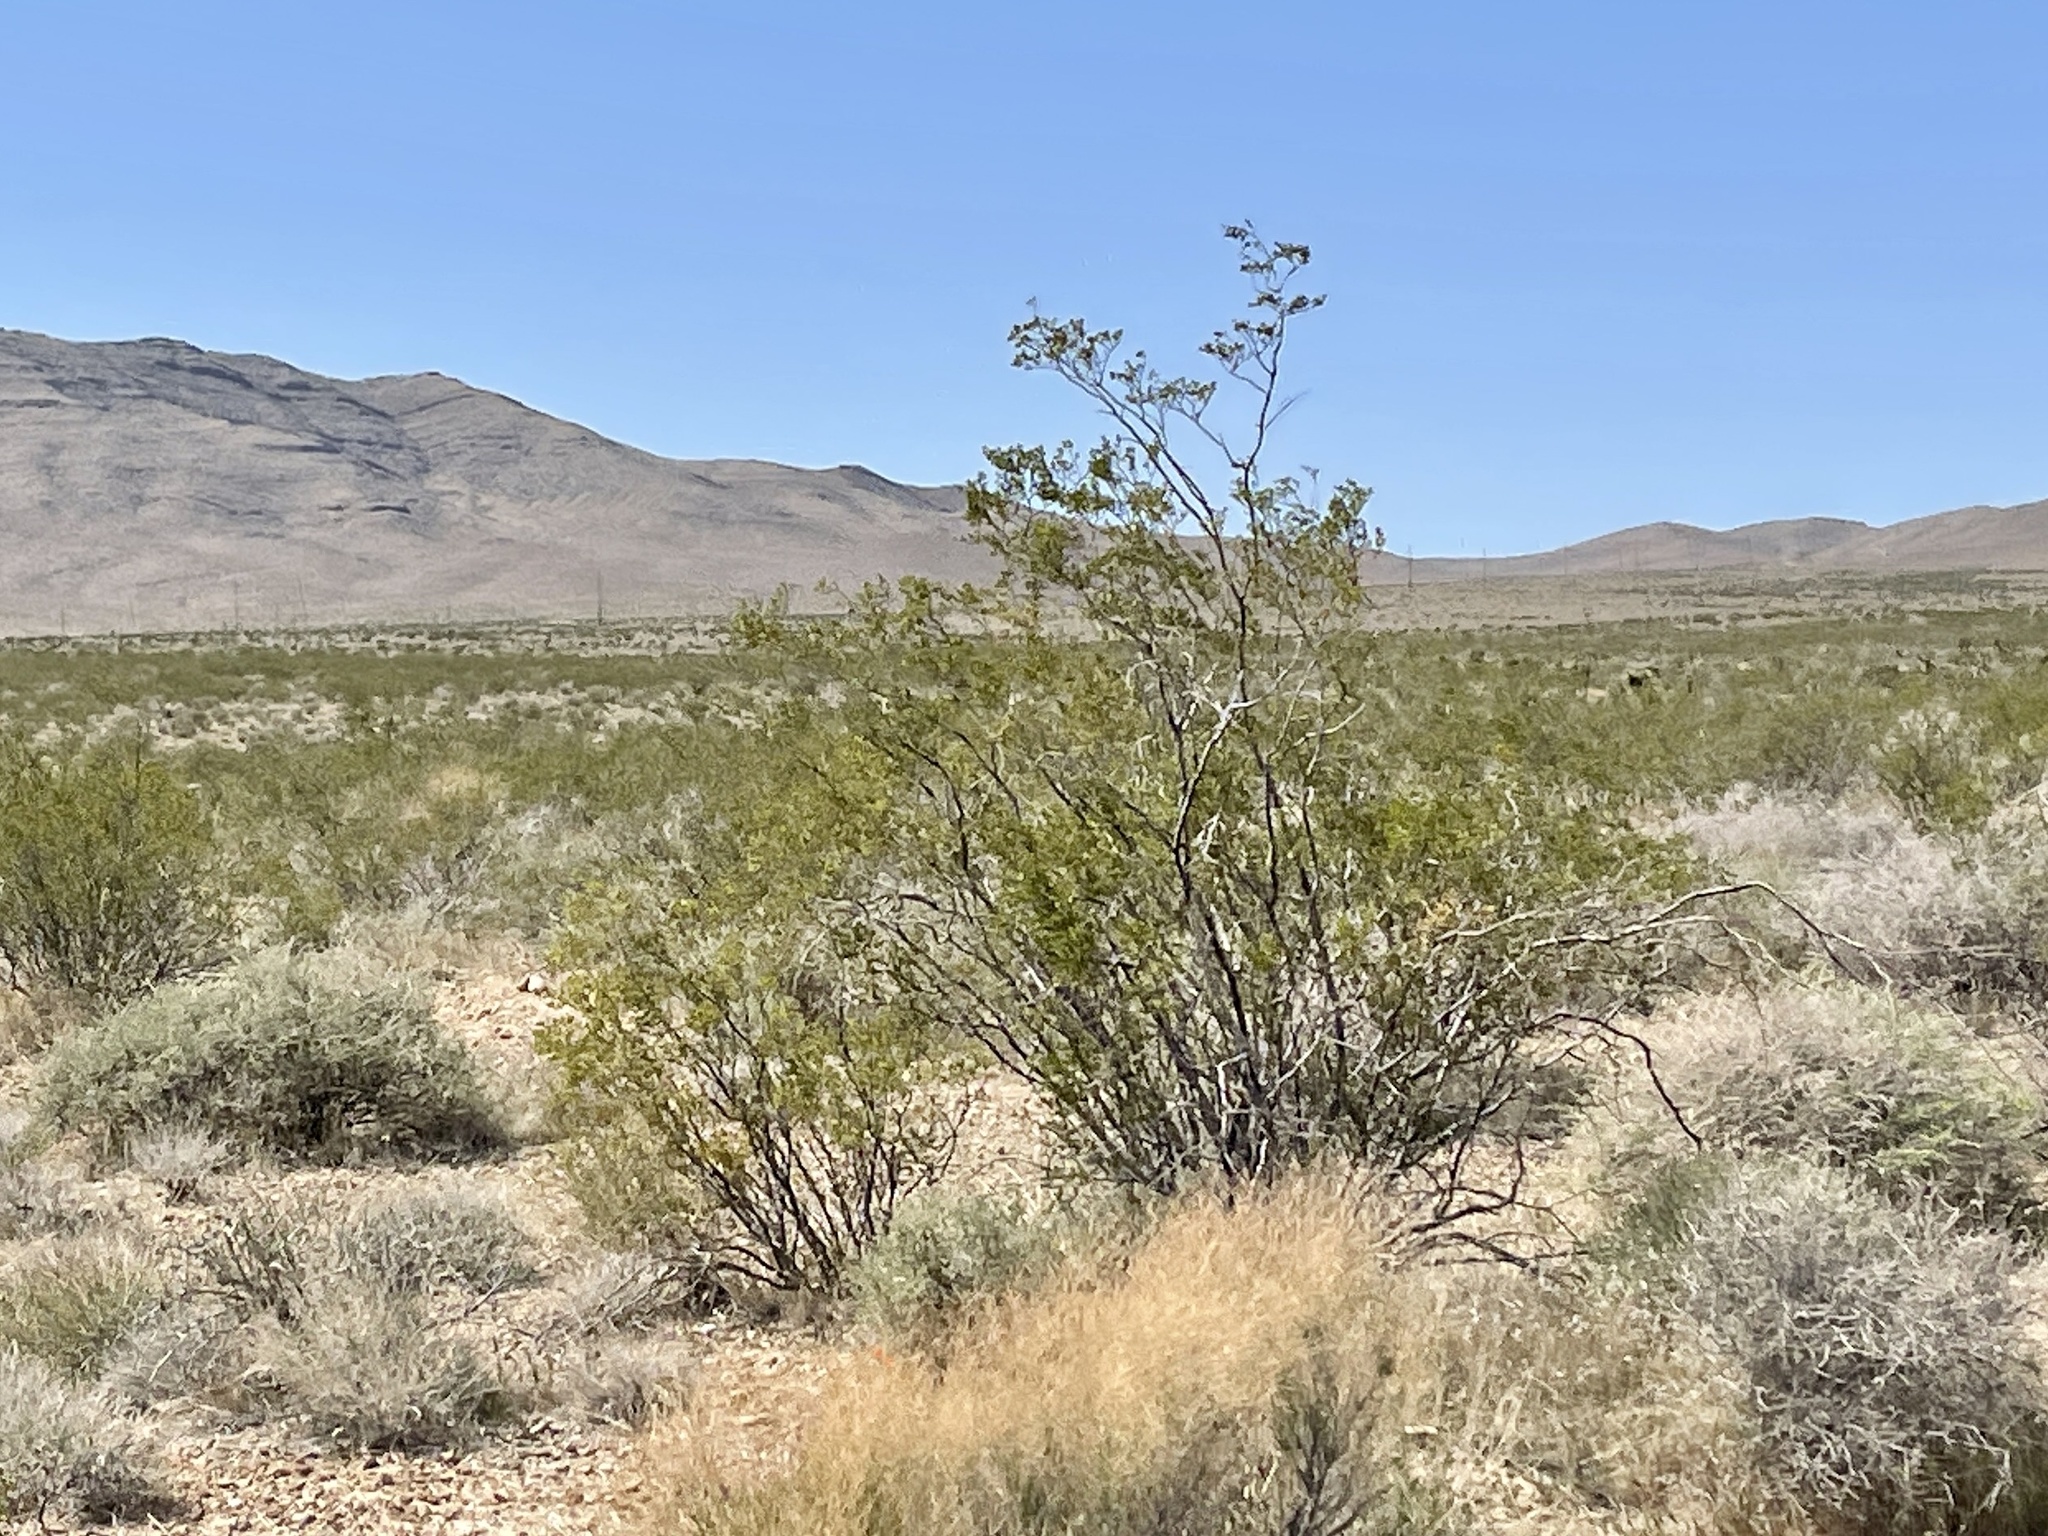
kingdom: Plantae
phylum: Tracheophyta
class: Magnoliopsida
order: Zygophyllales
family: Zygophyllaceae
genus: Larrea
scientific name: Larrea tridentata
